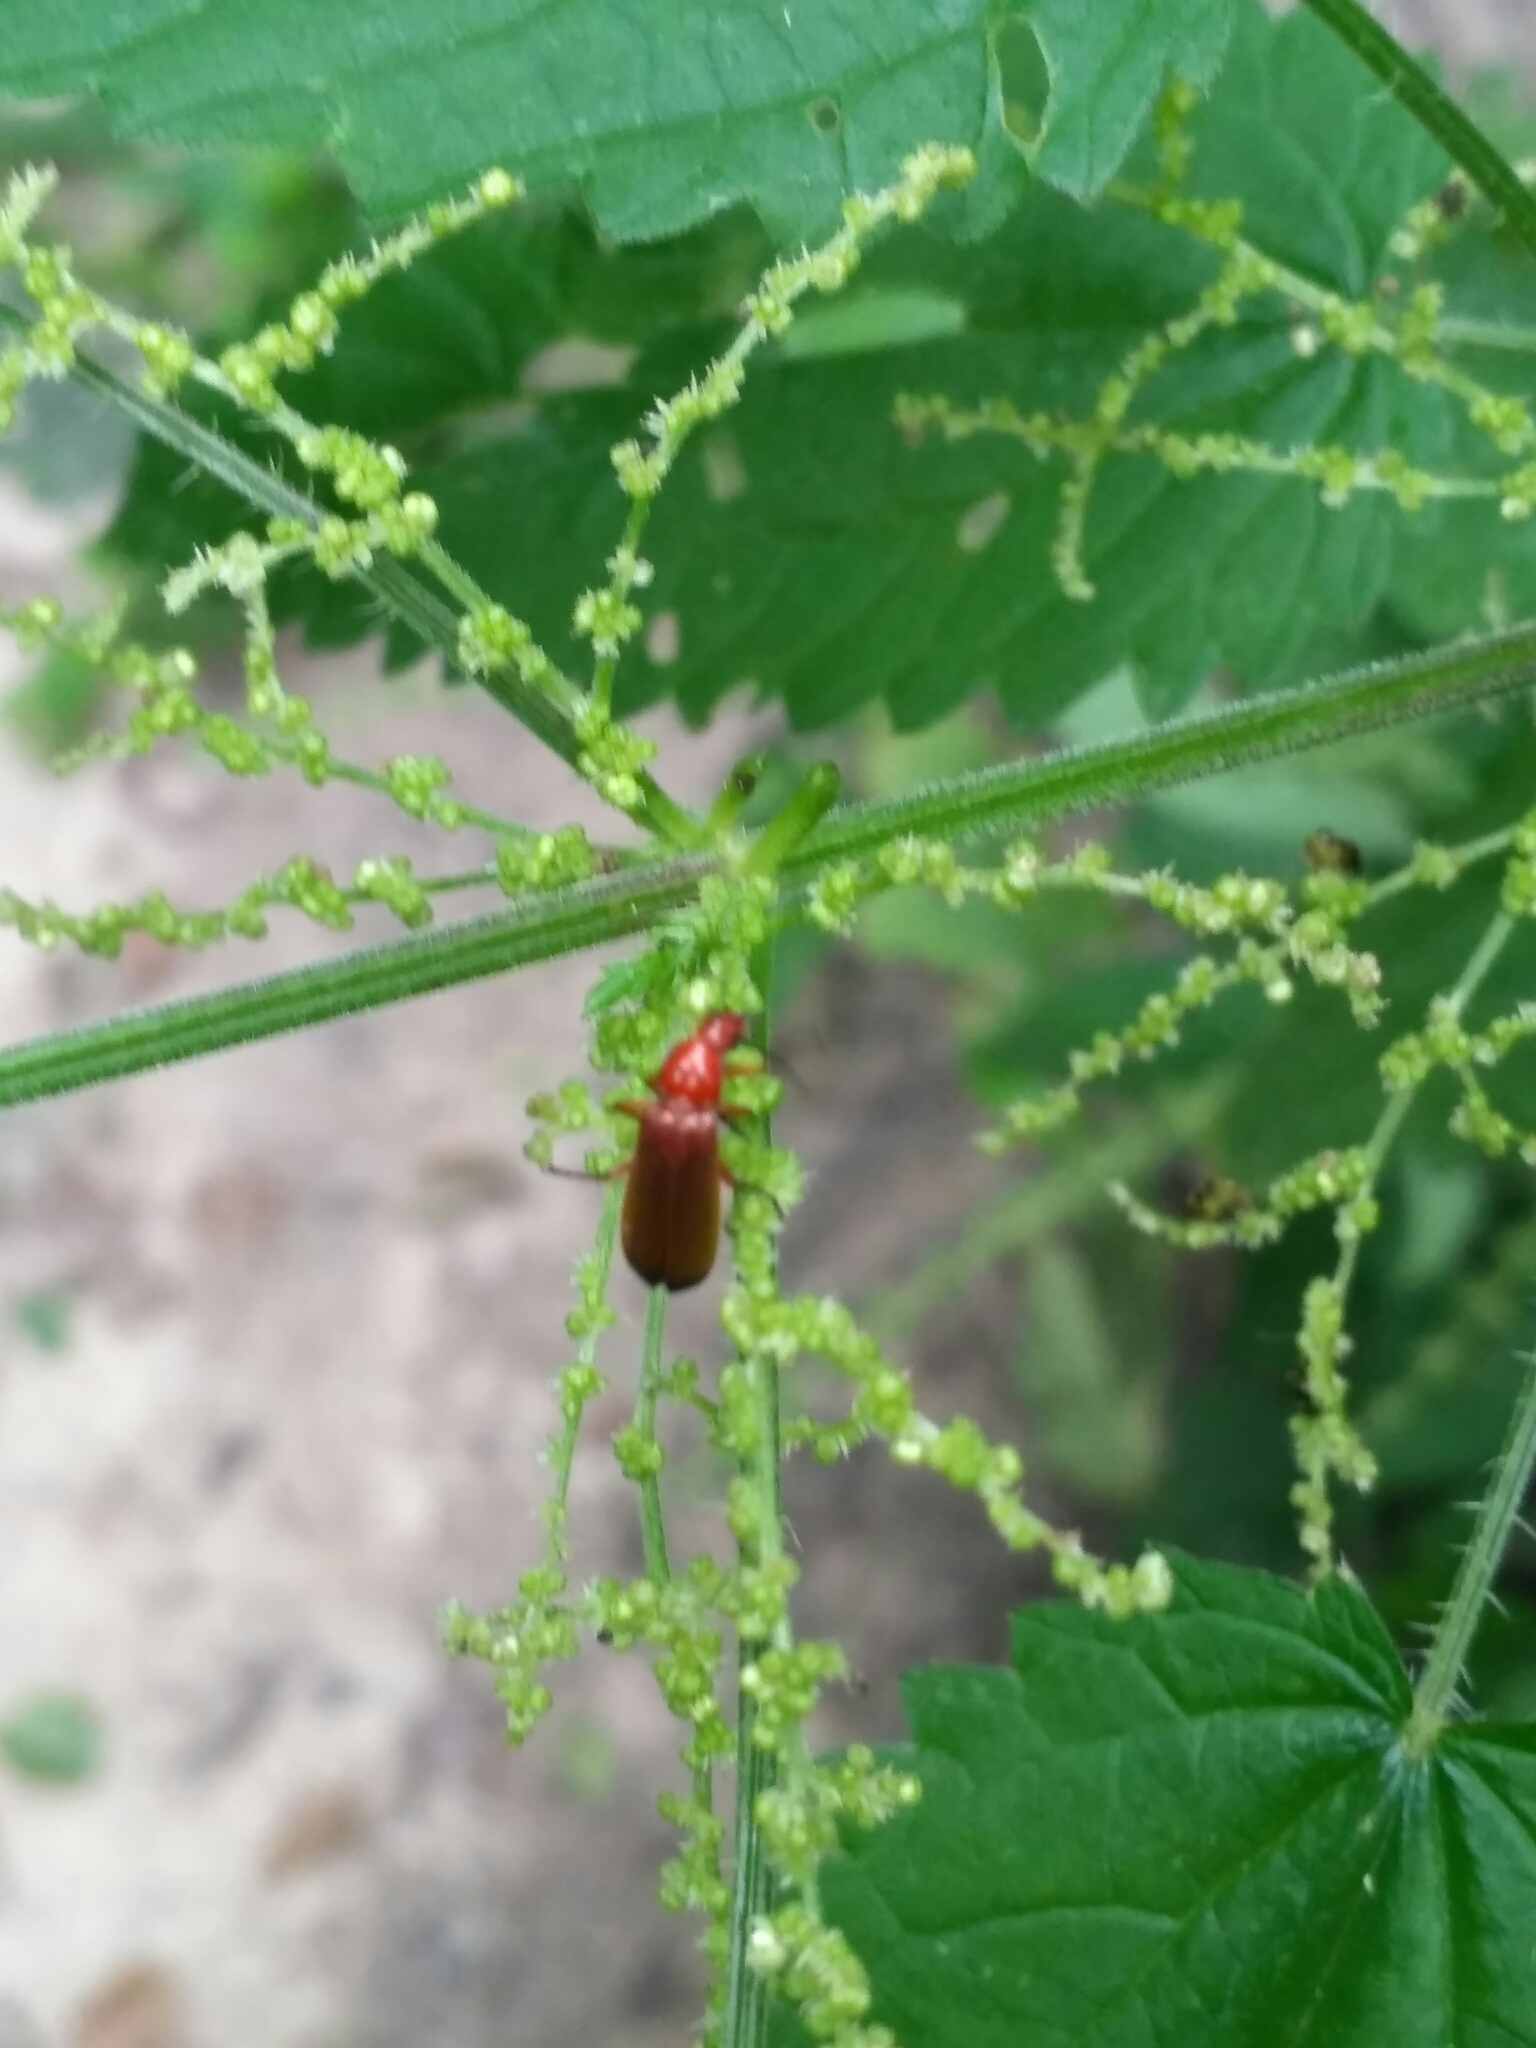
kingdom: Animalia
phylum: Arthropoda
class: Insecta
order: Coleoptera
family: Cantharidae
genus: Rhagonycha
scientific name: Rhagonycha fulva
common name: Common red soldier beetle
